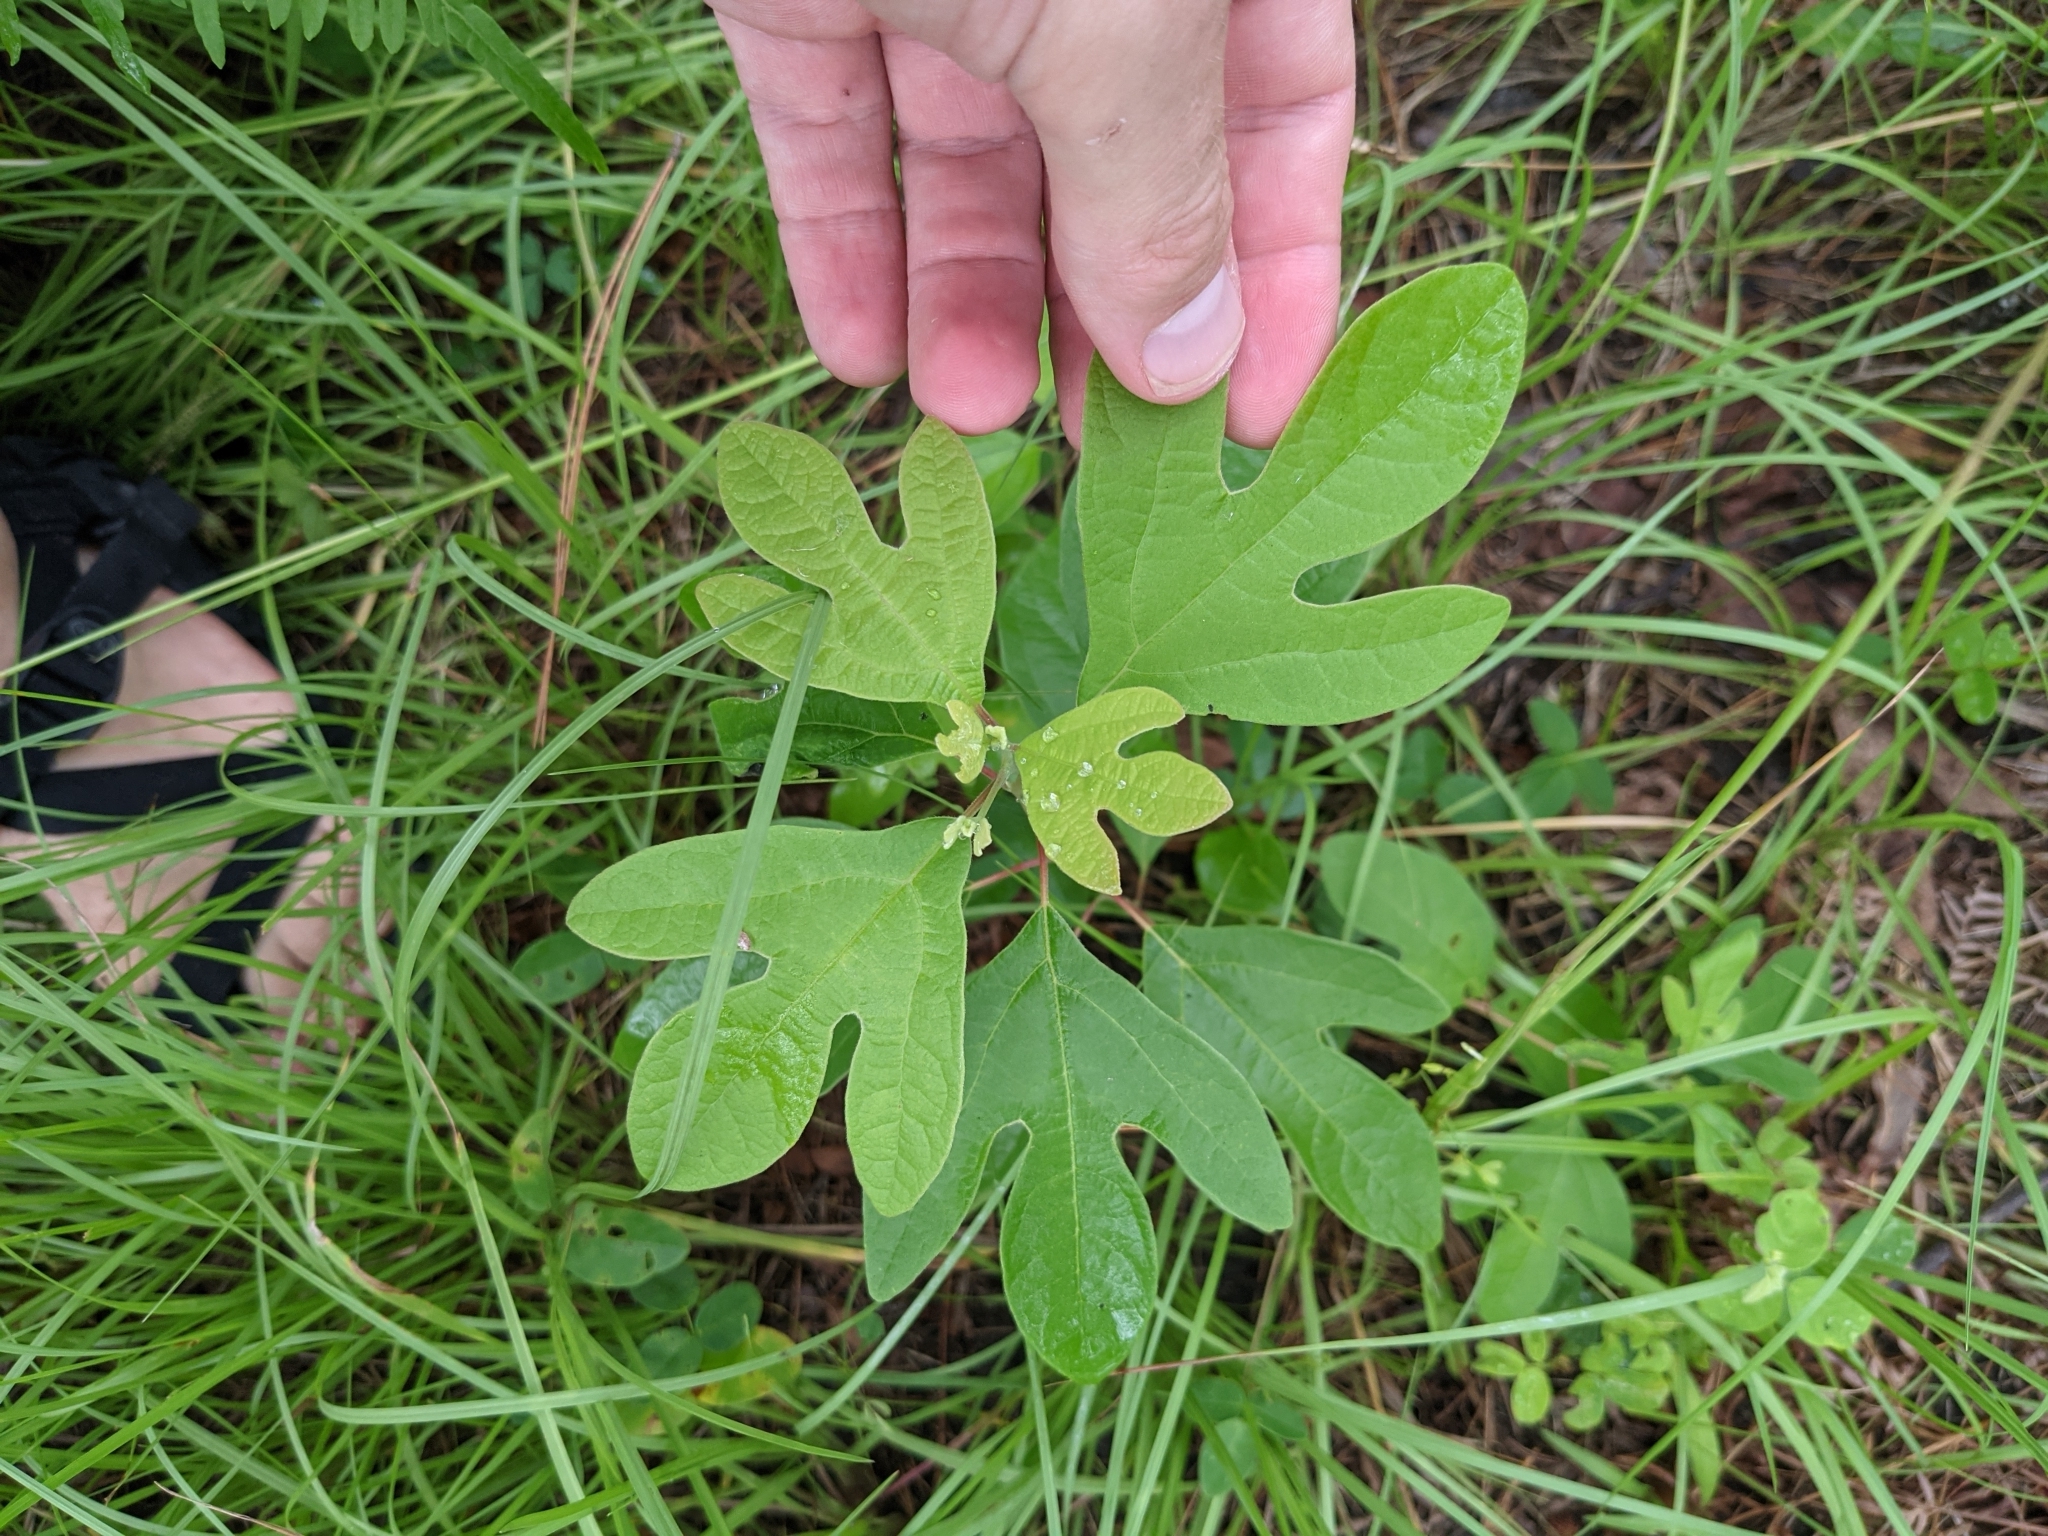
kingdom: Plantae
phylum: Tracheophyta
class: Magnoliopsida
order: Laurales
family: Lauraceae
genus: Sassafras
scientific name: Sassafras albidum
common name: Sassafras
